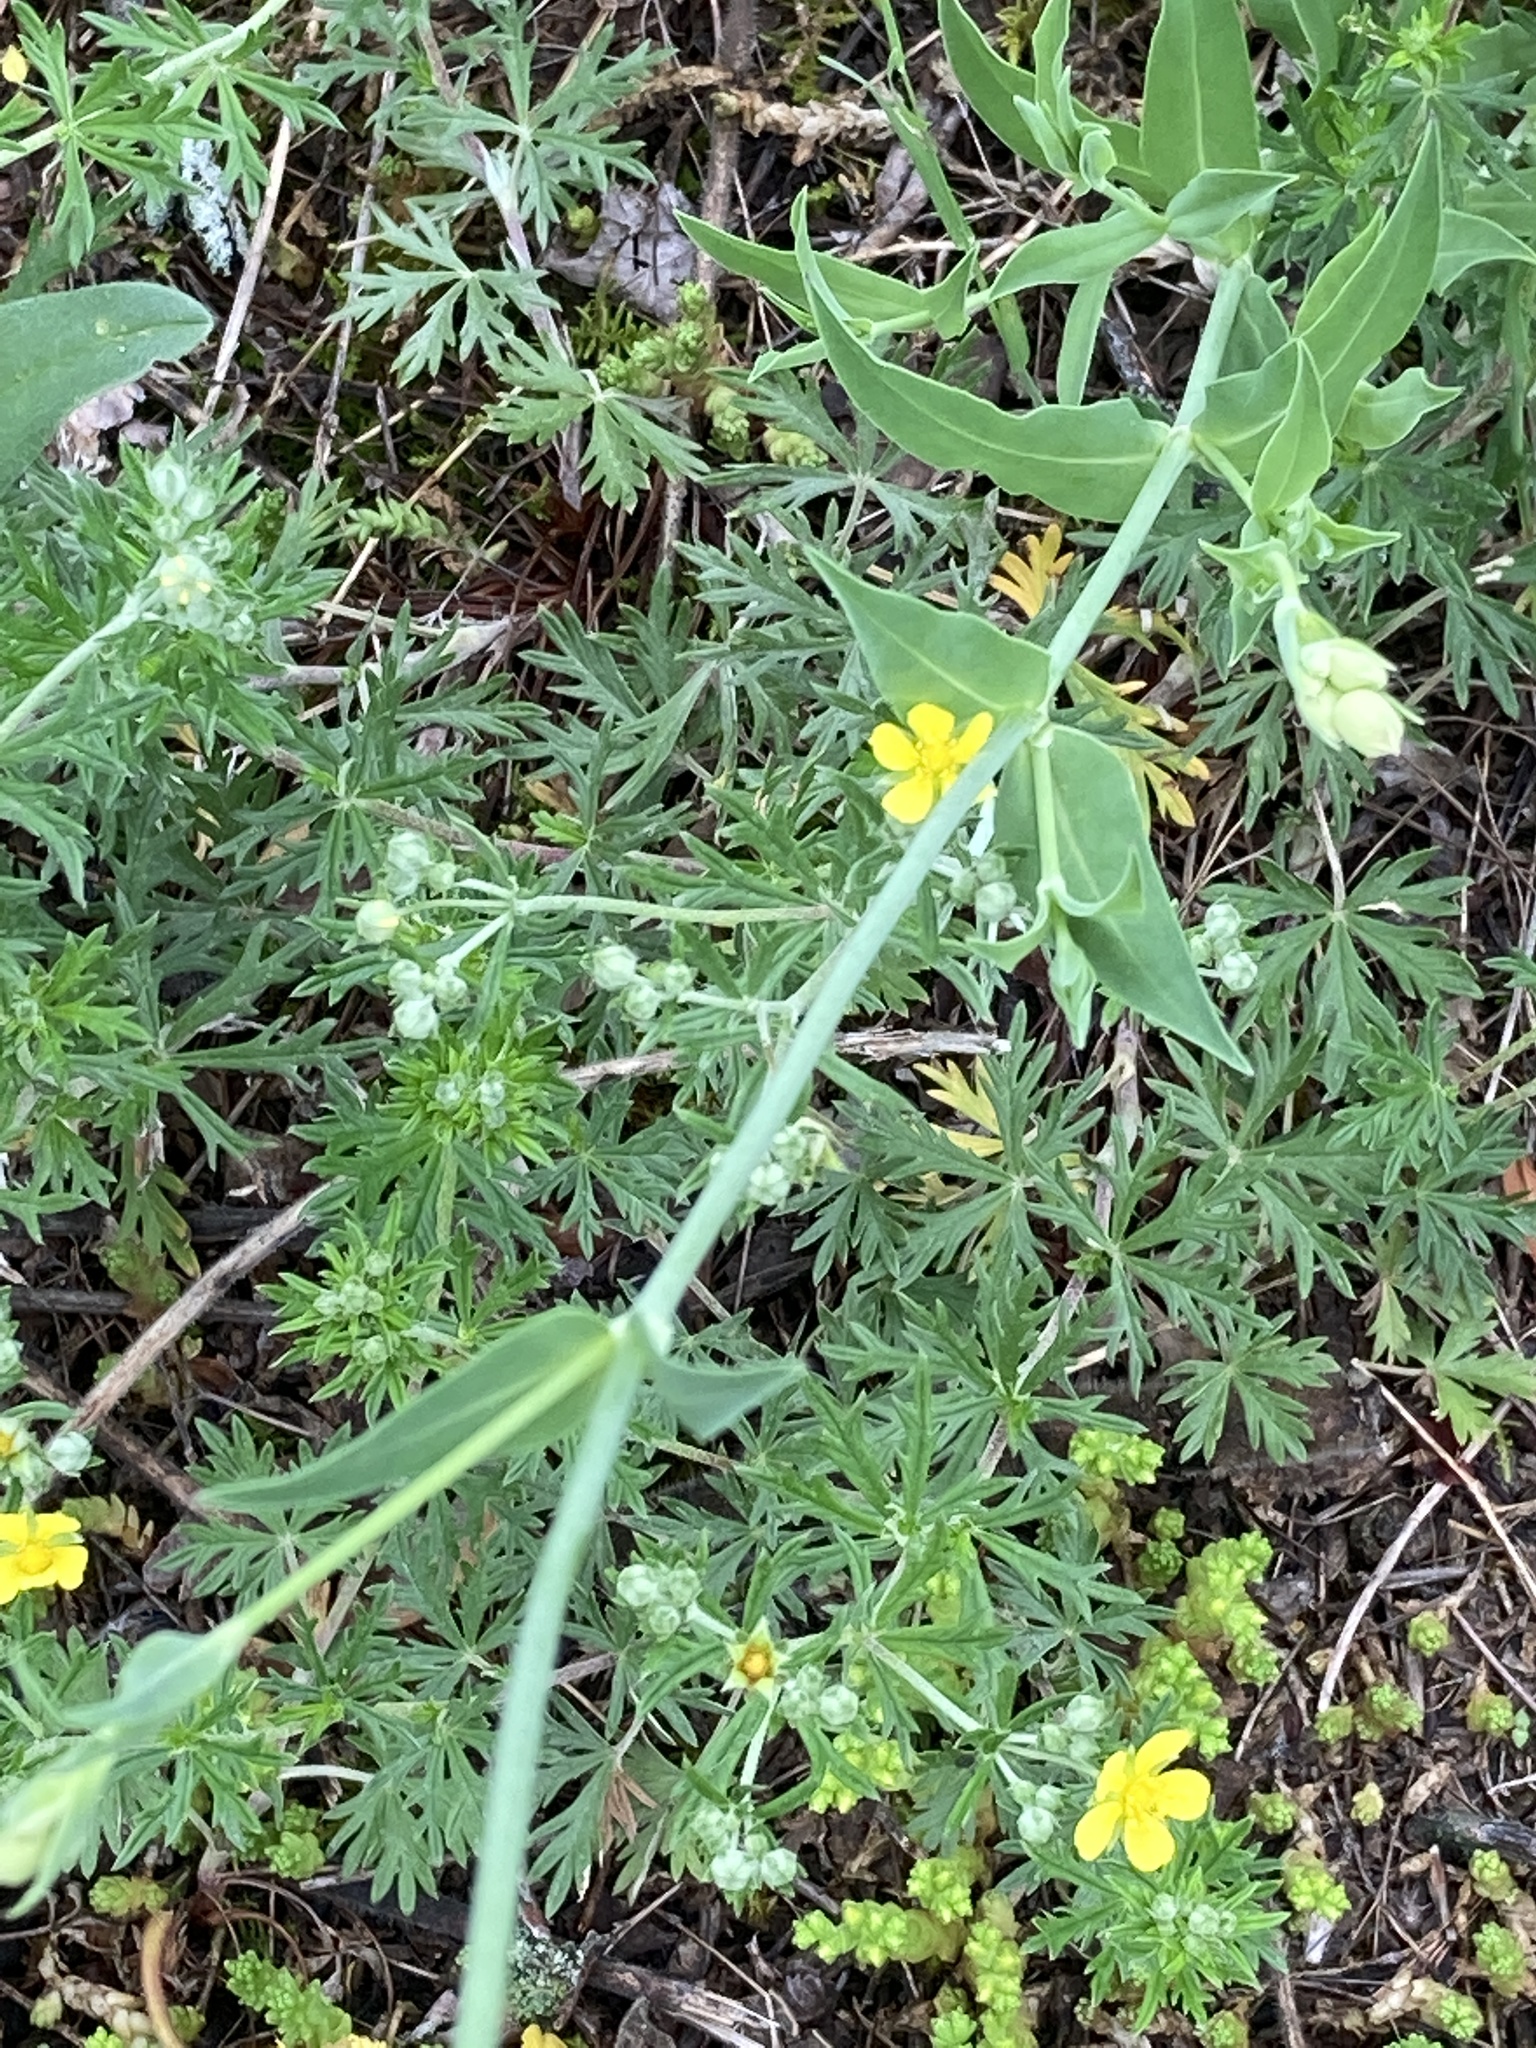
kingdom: Plantae
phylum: Tracheophyta
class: Magnoliopsida
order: Caryophyllales
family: Caryophyllaceae
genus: Silene
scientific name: Silene vulgaris
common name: Bladder campion
